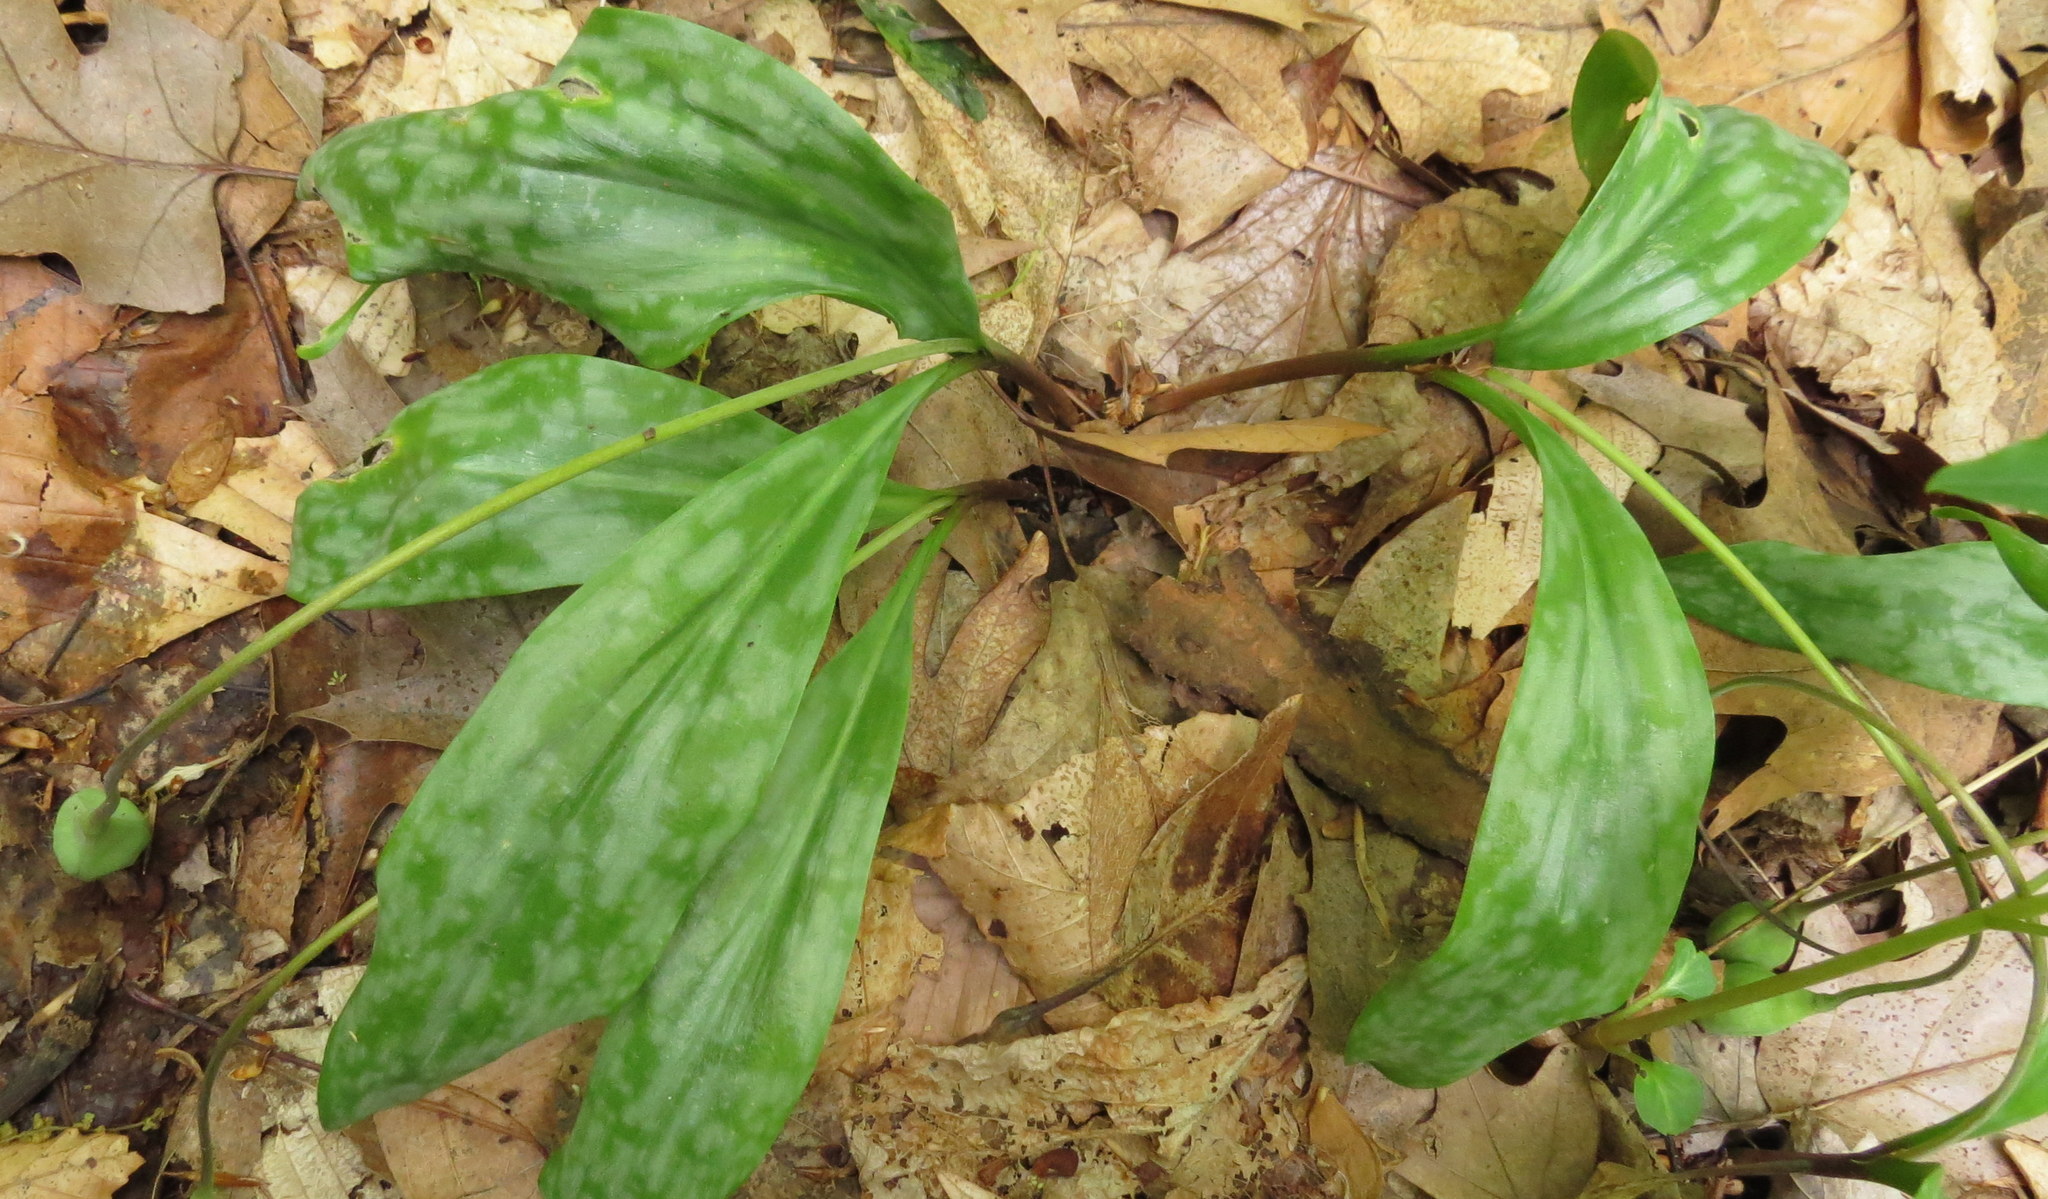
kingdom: Plantae
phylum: Tracheophyta
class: Liliopsida
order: Liliales
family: Liliaceae
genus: Erythronium
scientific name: Erythronium americanum
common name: Yellow adder's-tongue
